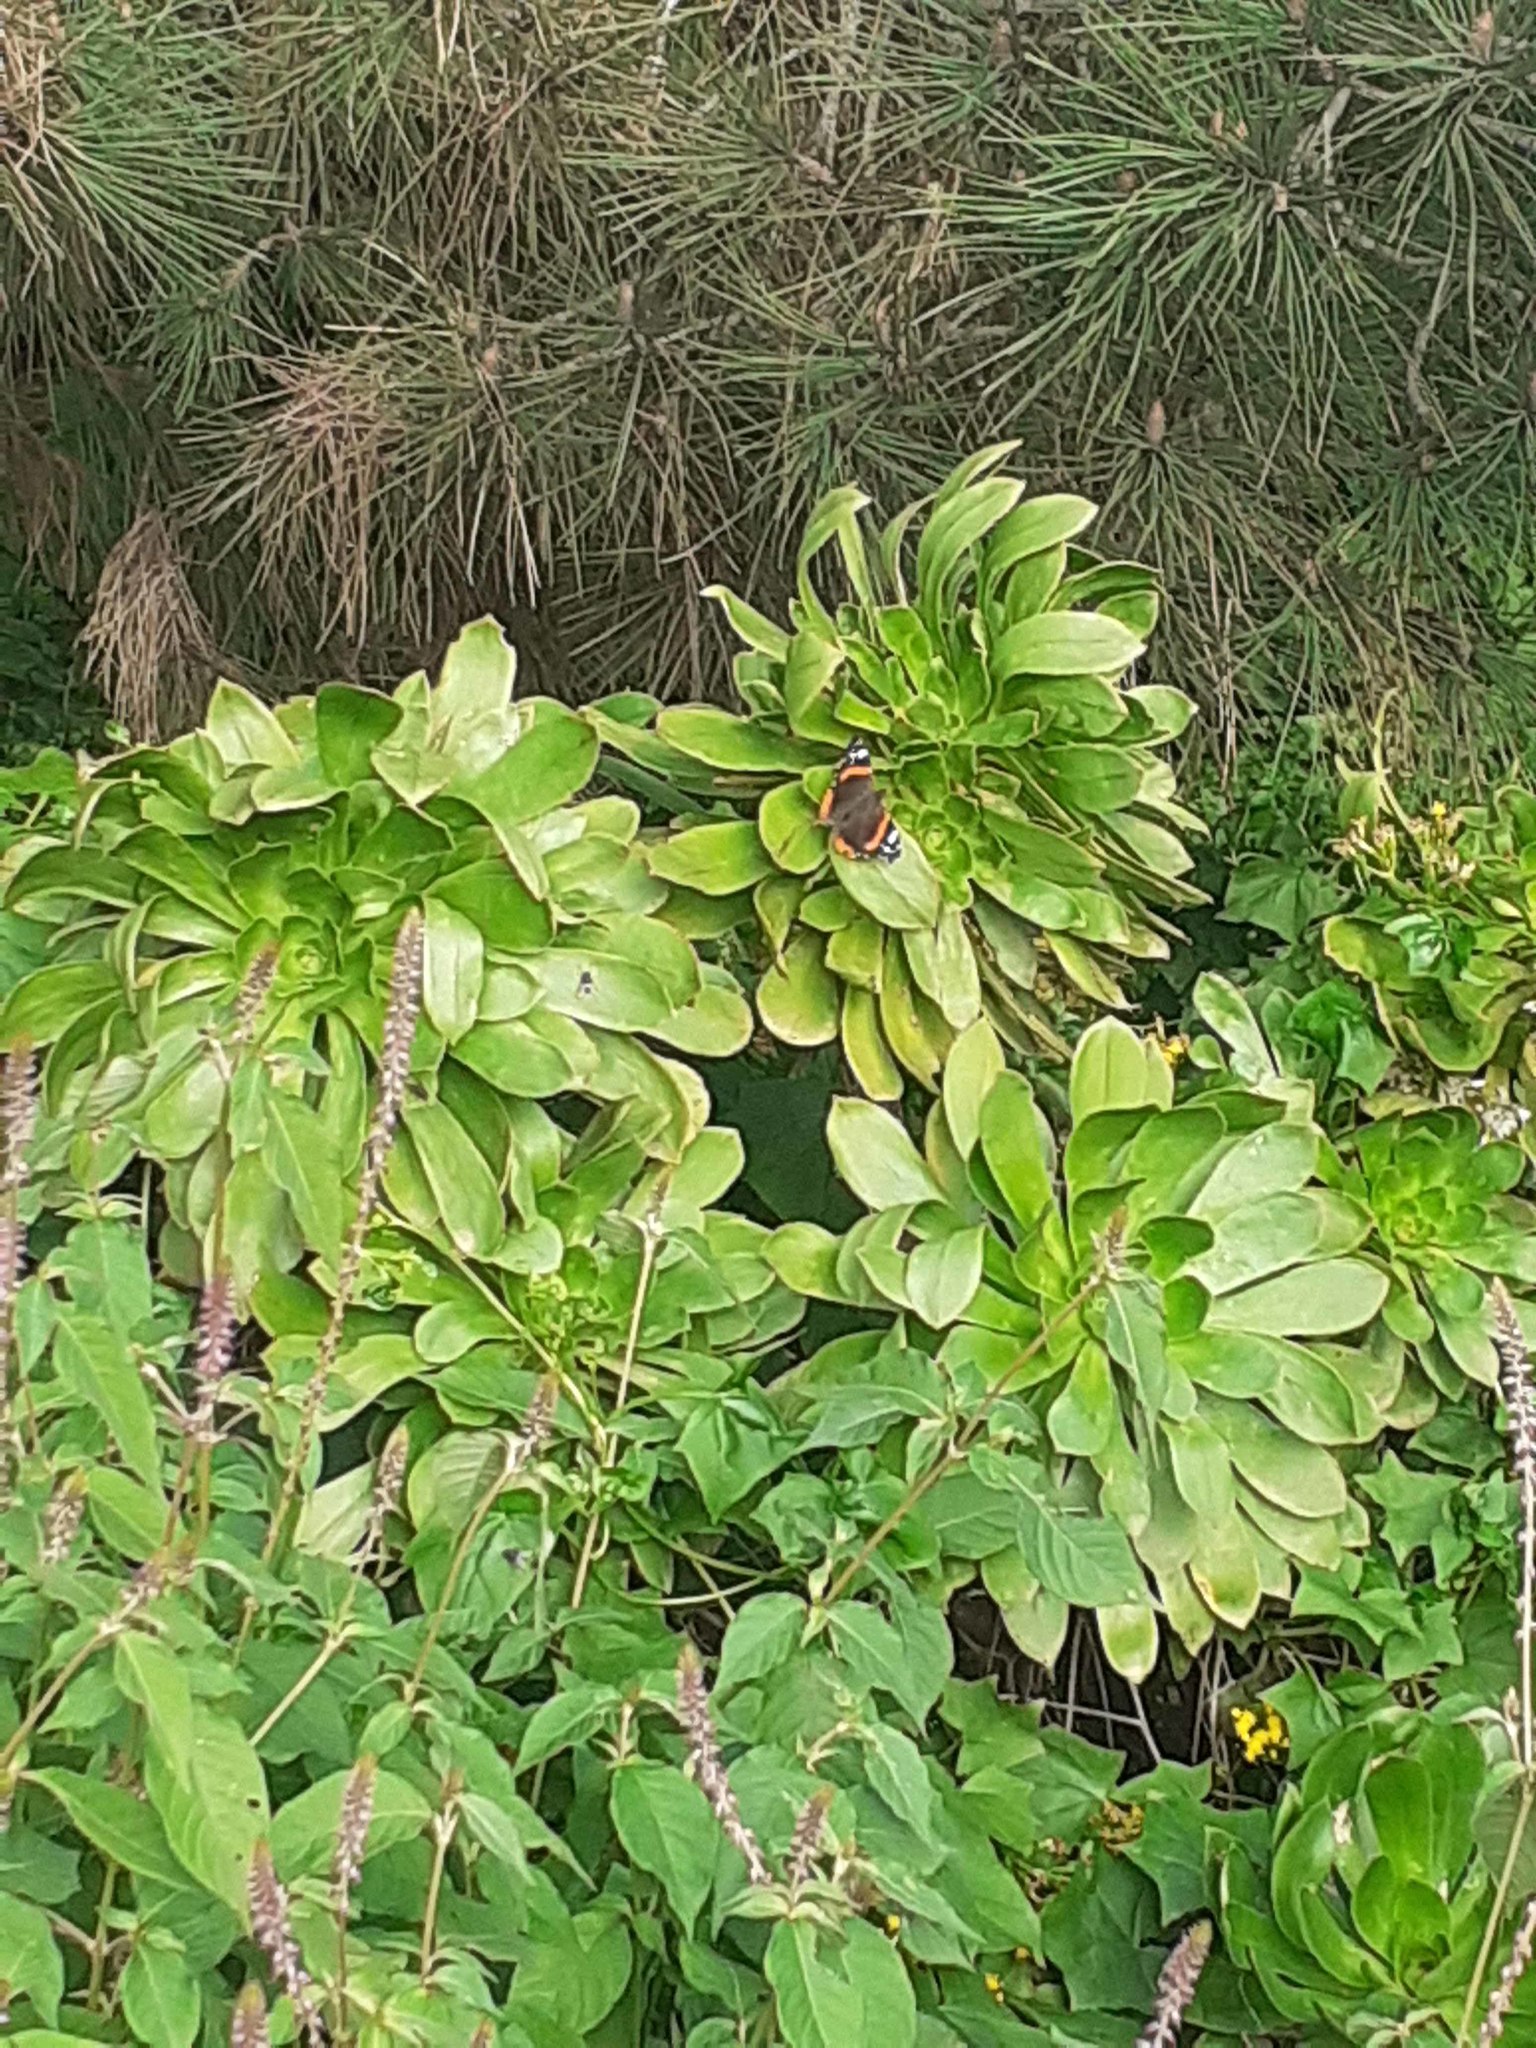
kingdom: Animalia
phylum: Arthropoda
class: Insecta
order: Lepidoptera
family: Nymphalidae
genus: Vanessa
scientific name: Vanessa atalanta
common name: Red admiral
